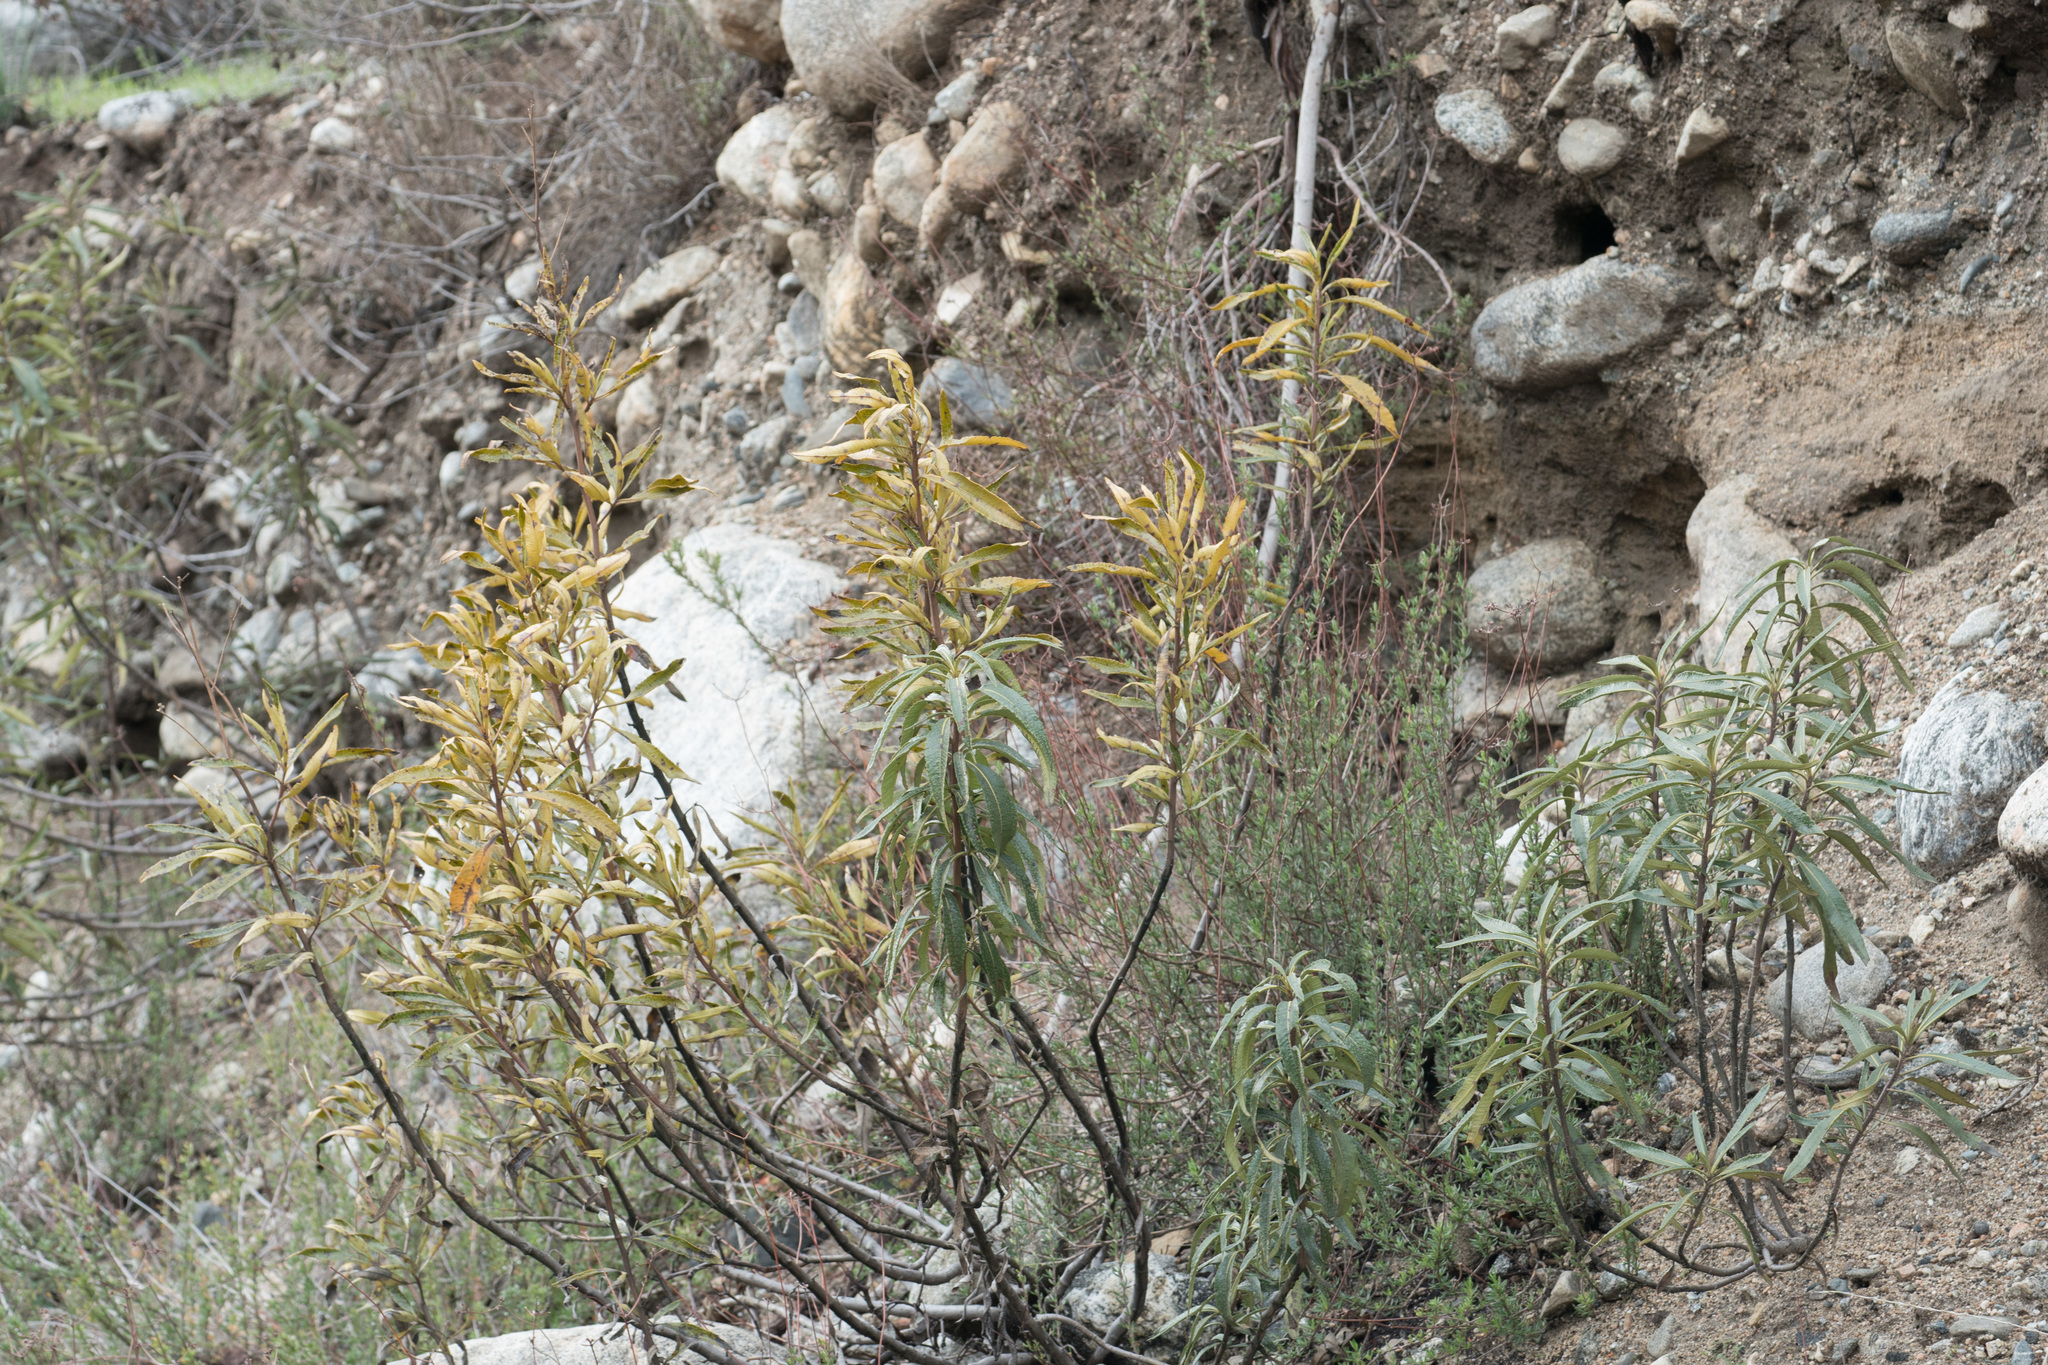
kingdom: Plantae
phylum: Tracheophyta
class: Magnoliopsida
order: Boraginales
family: Namaceae
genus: Eriodictyon
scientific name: Eriodictyon trichocalyx
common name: Hairy yerba-santa
